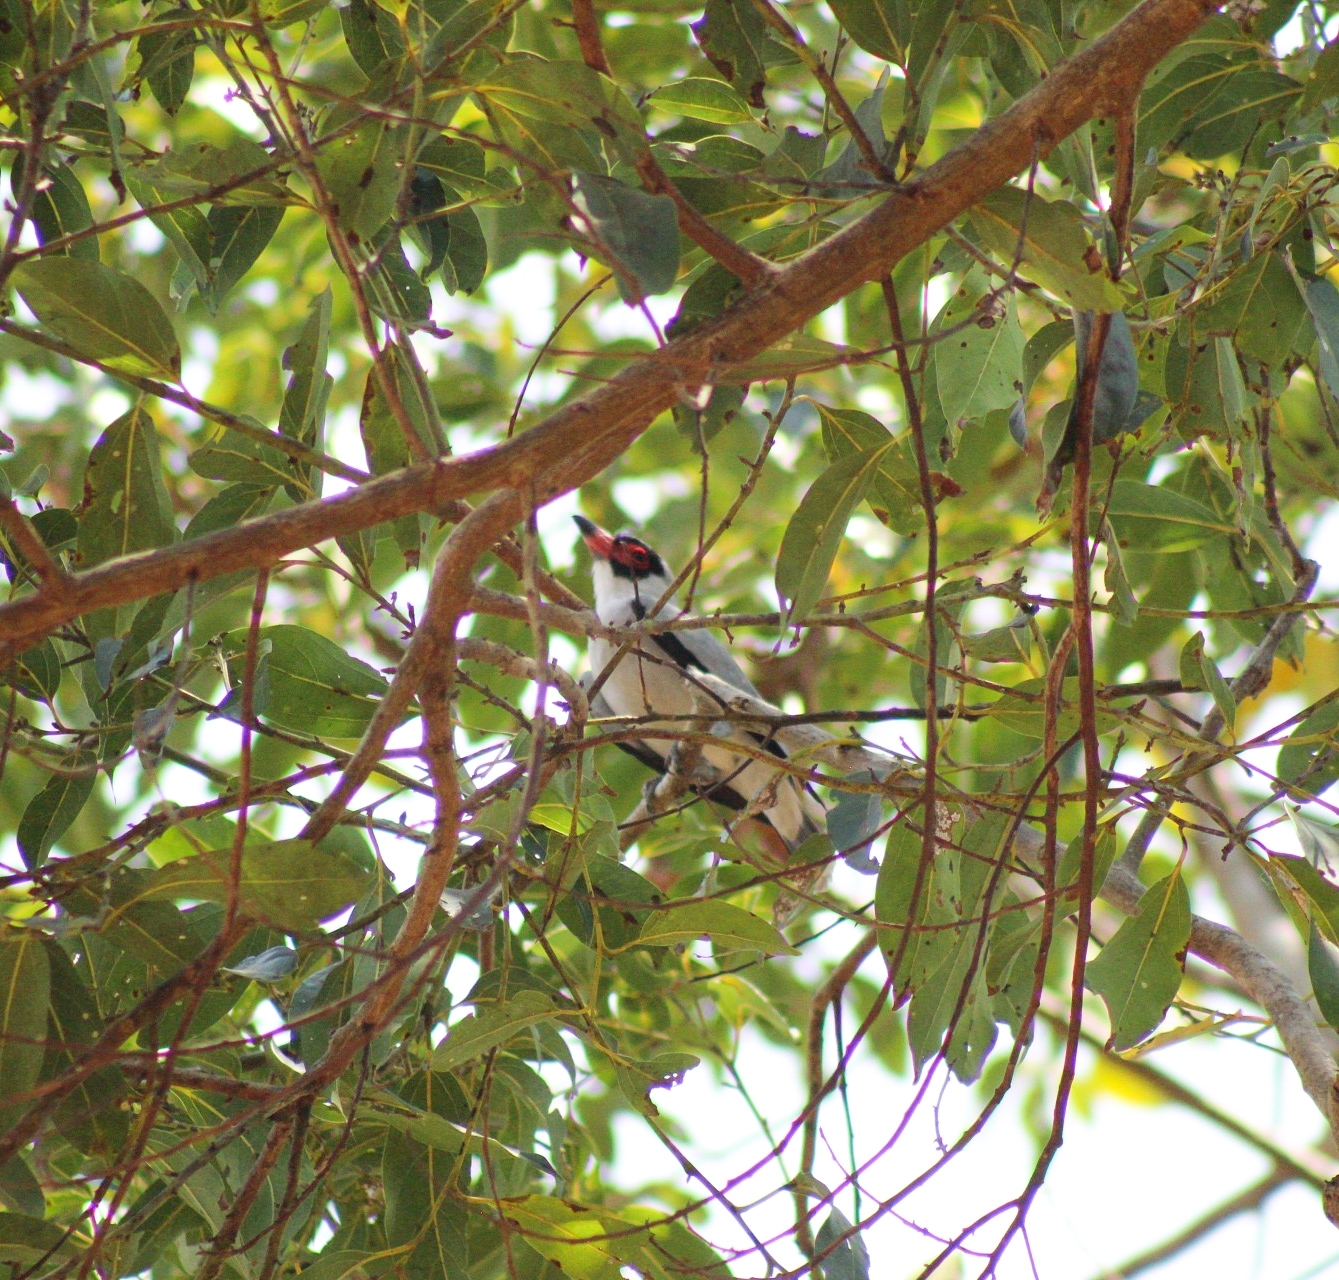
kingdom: Animalia
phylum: Chordata
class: Aves
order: Passeriformes
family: Cotingidae
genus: Tityra
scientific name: Tityra semifasciata
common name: Masked tityra
